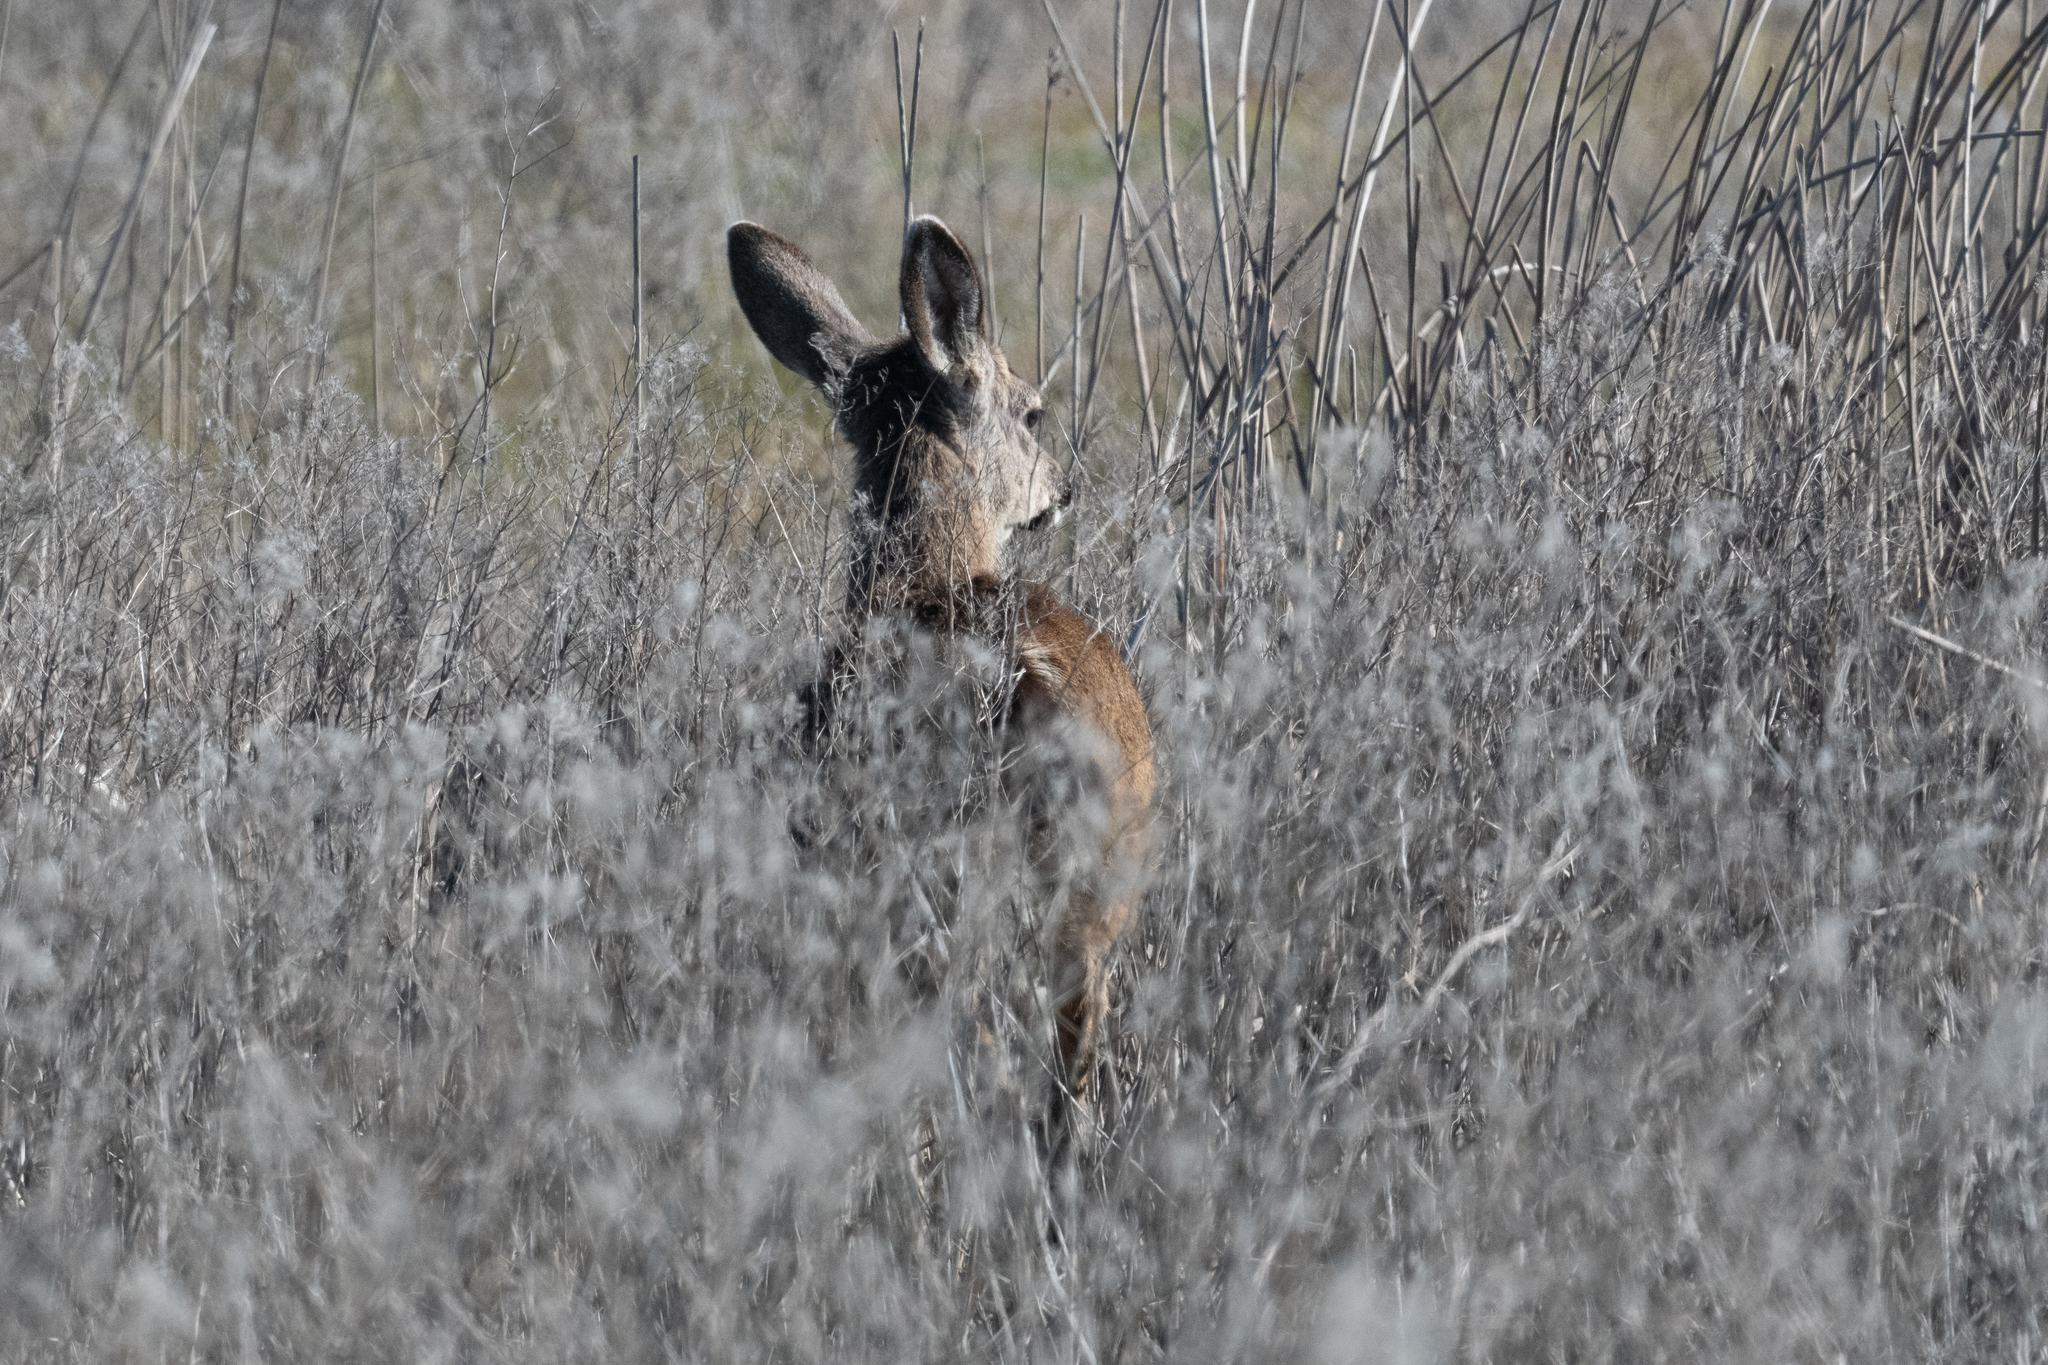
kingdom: Animalia
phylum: Chordata
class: Mammalia
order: Artiodactyla
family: Cervidae
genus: Odocoileus
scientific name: Odocoileus hemionus
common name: Mule deer
